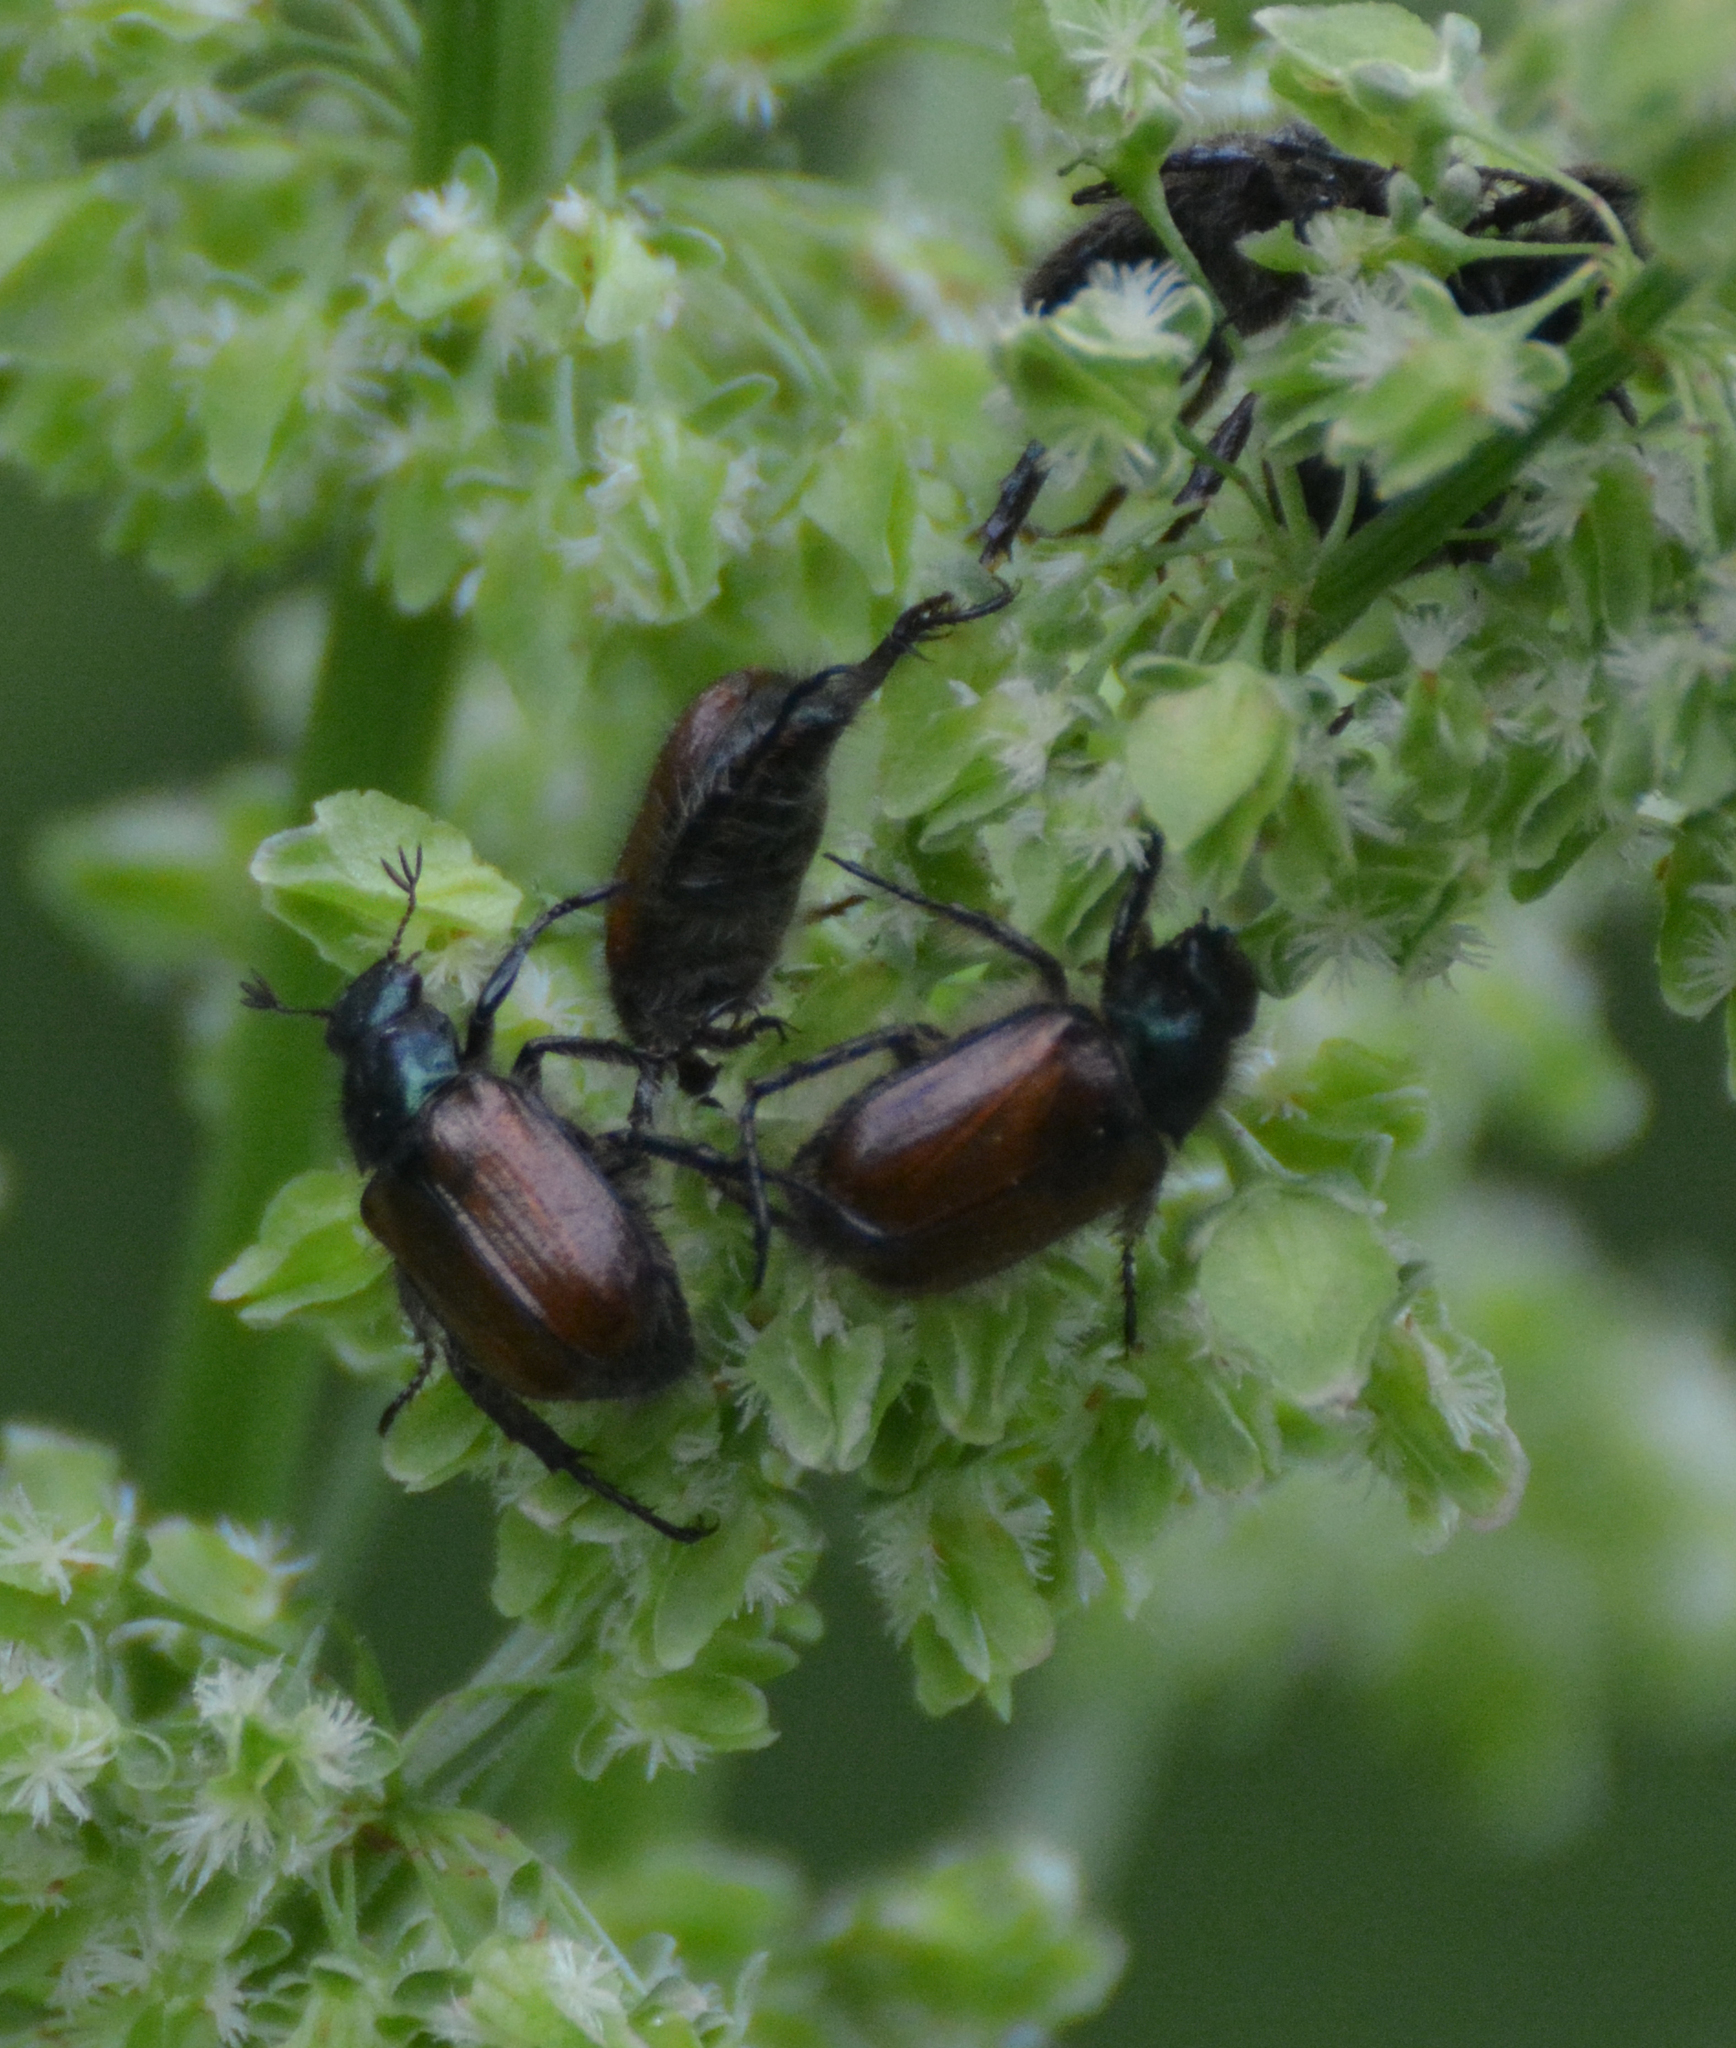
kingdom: Animalia
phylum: Arthropoda
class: Insecta
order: Coleoptera
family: Scarabaeidae
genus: Phyllopertha
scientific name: Phyllopertha horticola
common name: Garden chafer
